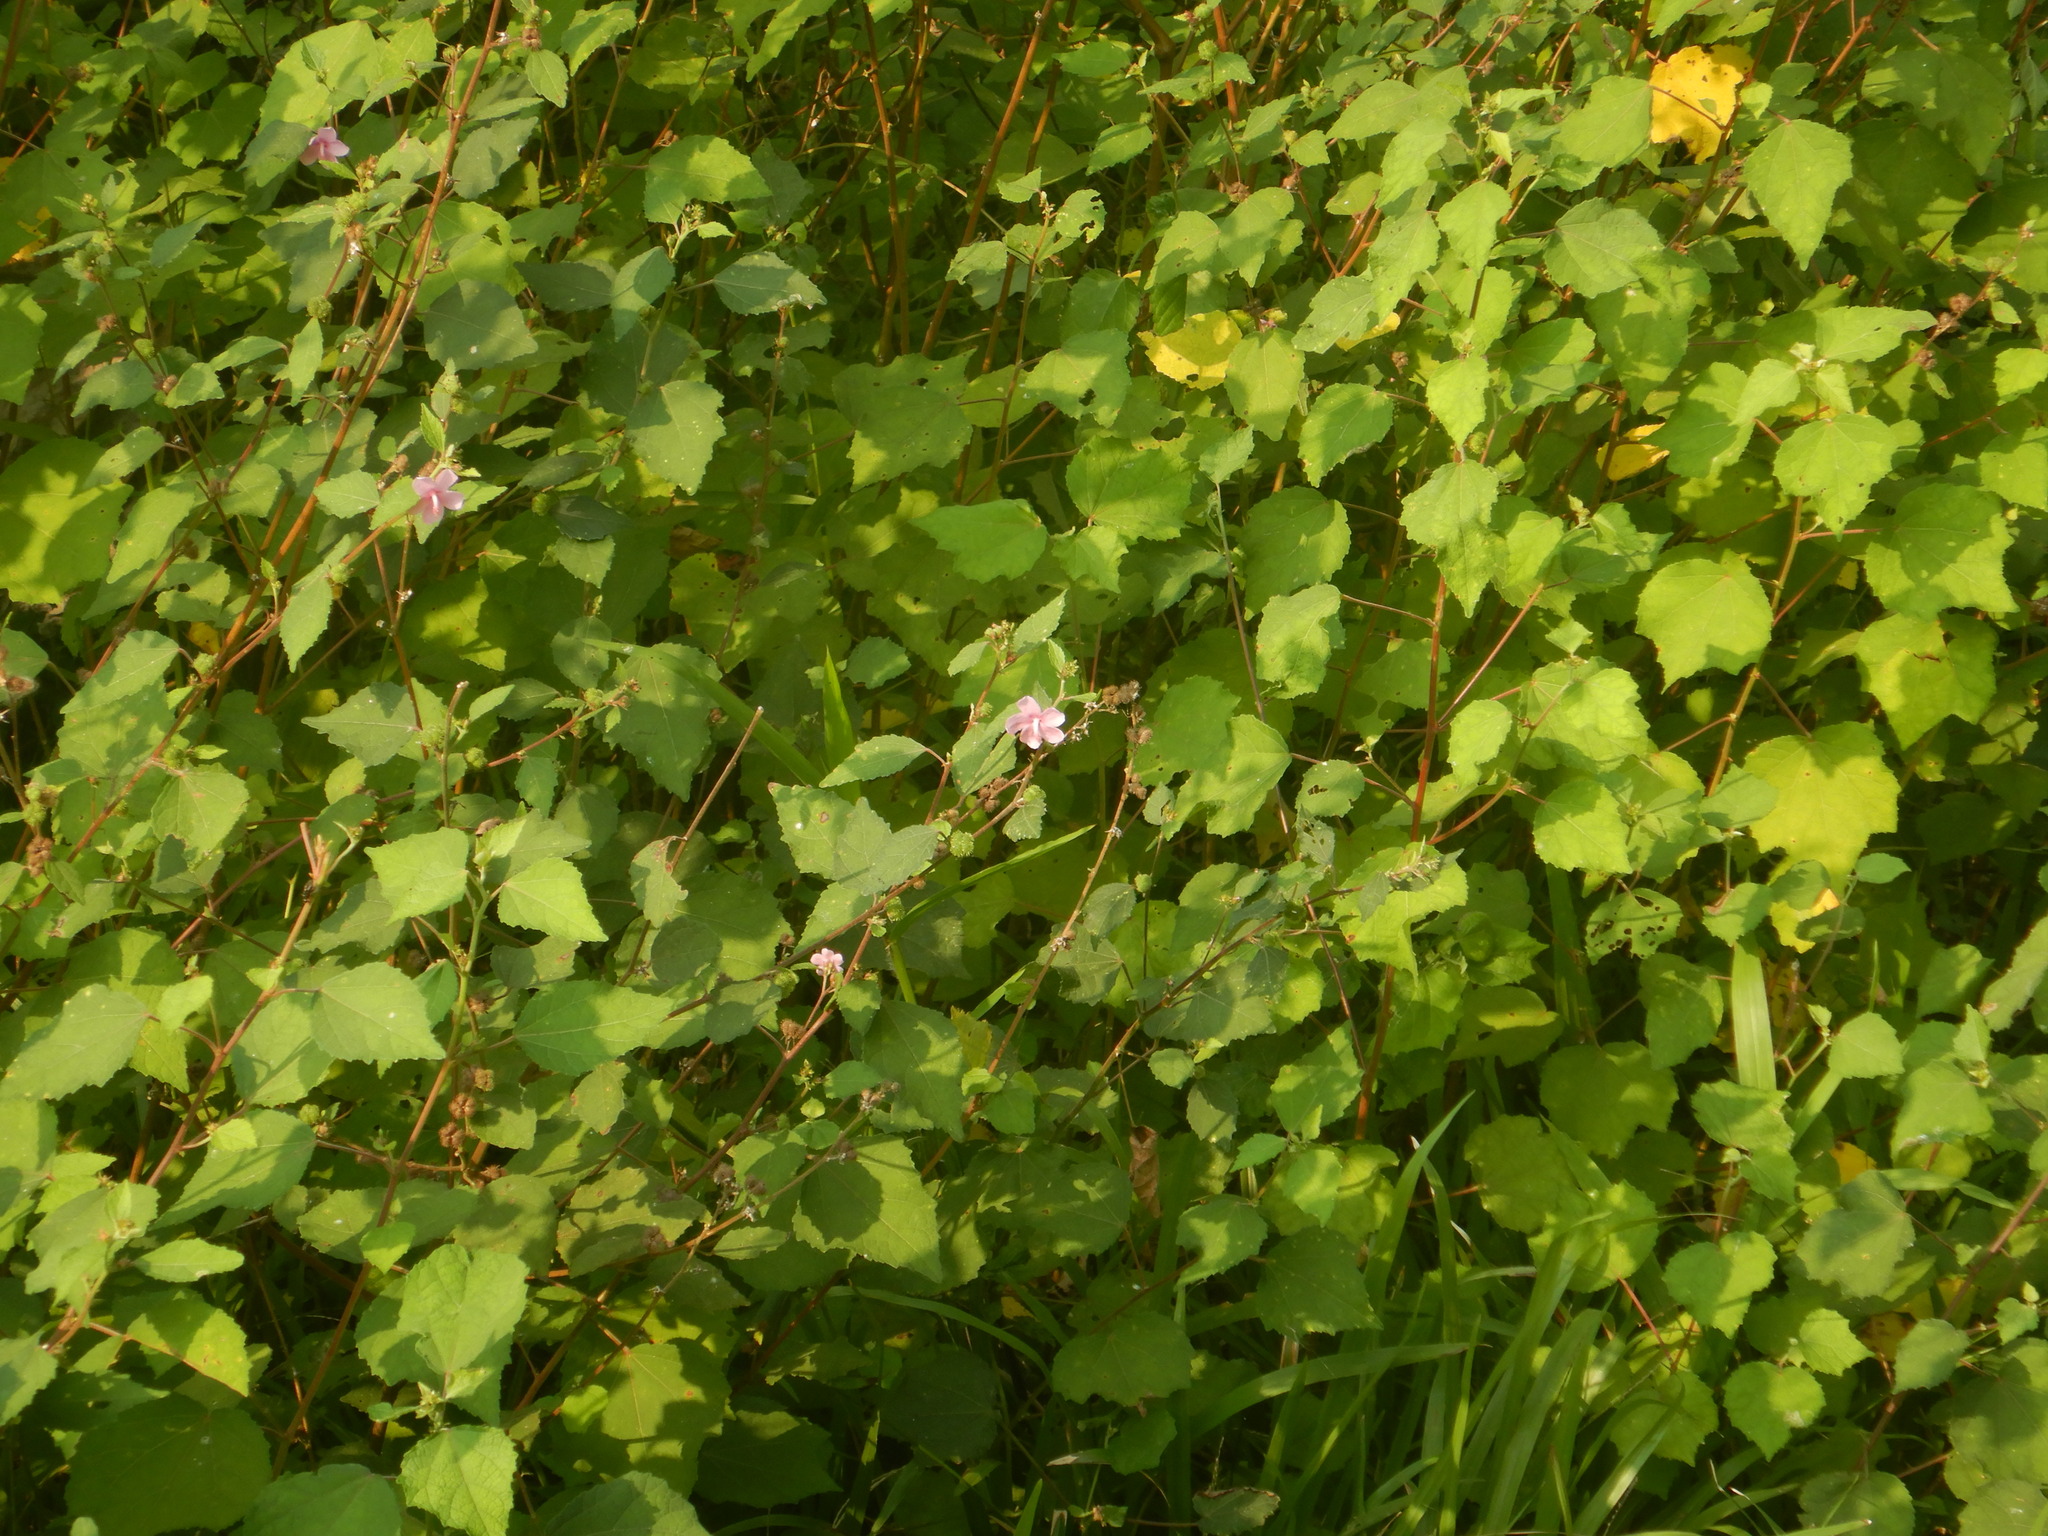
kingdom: Plantae
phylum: Tracheophyta
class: Magnoliopsida
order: Malvales
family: Malvaceae
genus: Urena
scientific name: Urena lobata
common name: Caesarweed
